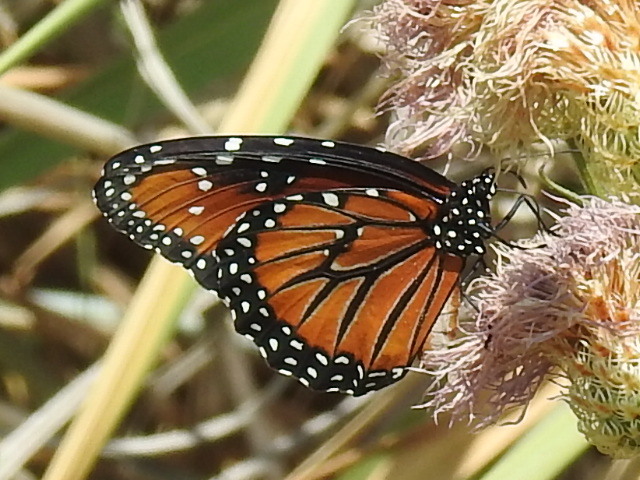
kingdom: Animalia
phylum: Arthropoda
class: Insecta
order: Lepidoptera
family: Nymphalidae
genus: Danaus
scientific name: Danaus gilippus
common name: Queen
